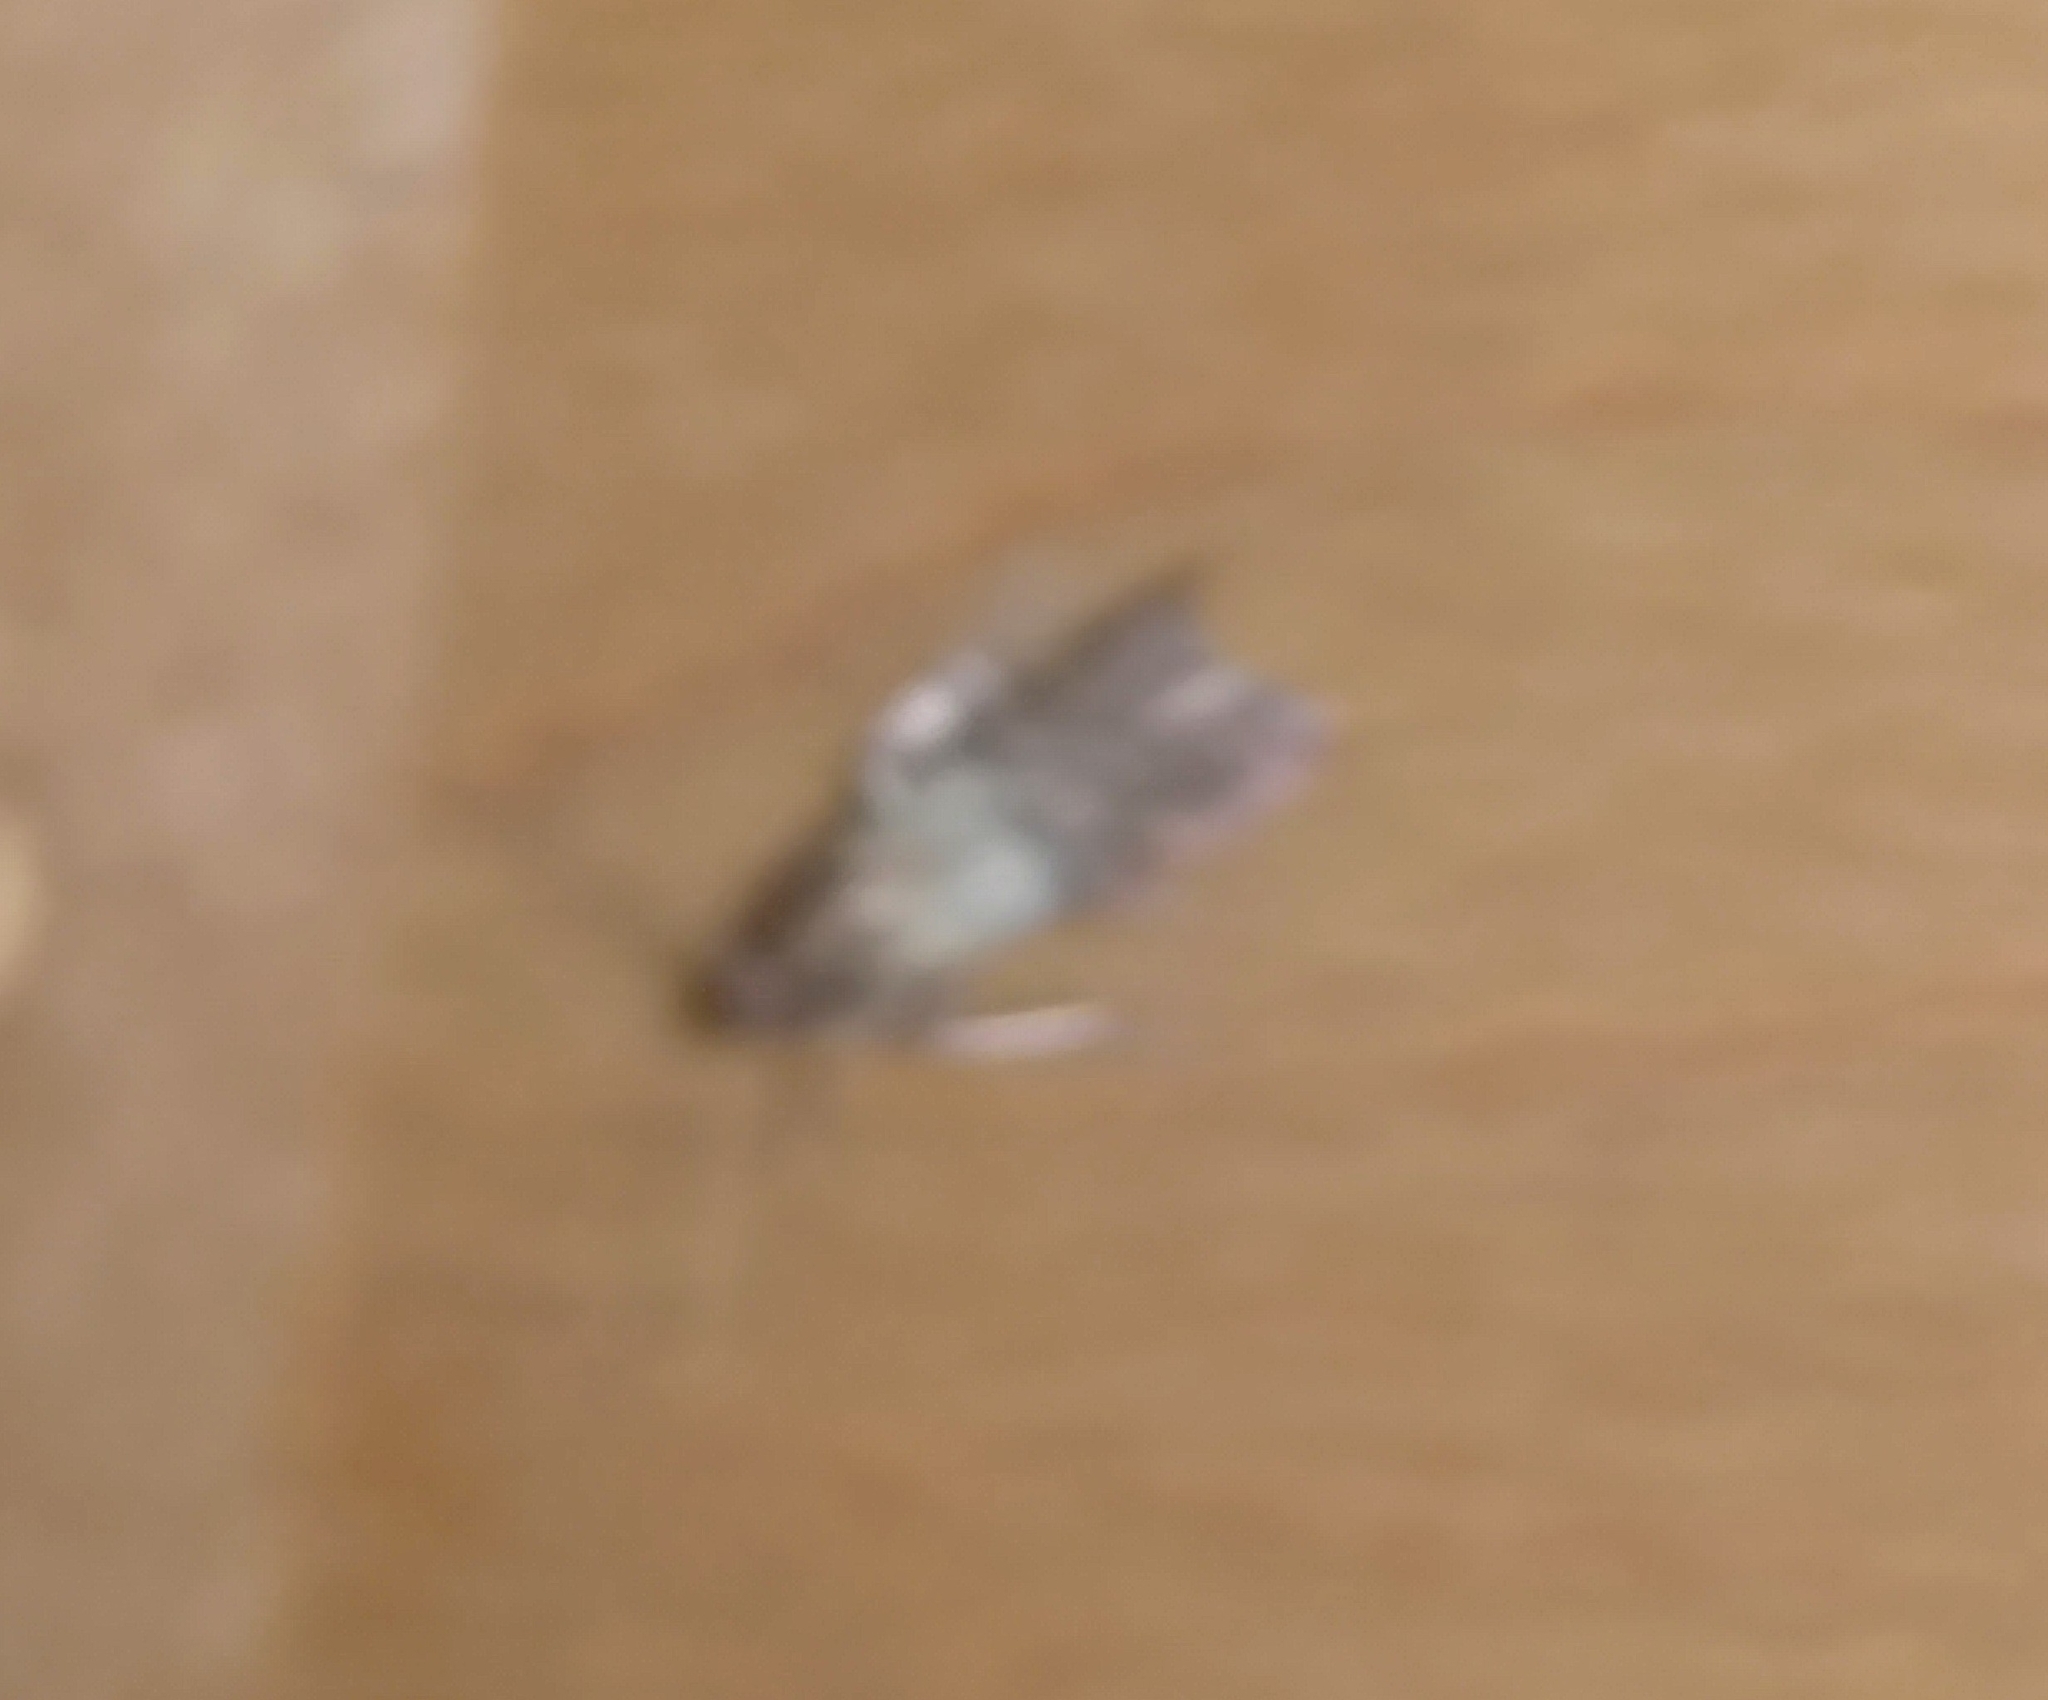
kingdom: Animalia
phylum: Arthropoda
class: Insecta
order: Lepidoptera
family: Pyralidae
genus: Plodia
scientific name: Plodia interpunctella
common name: Indian meal moth
